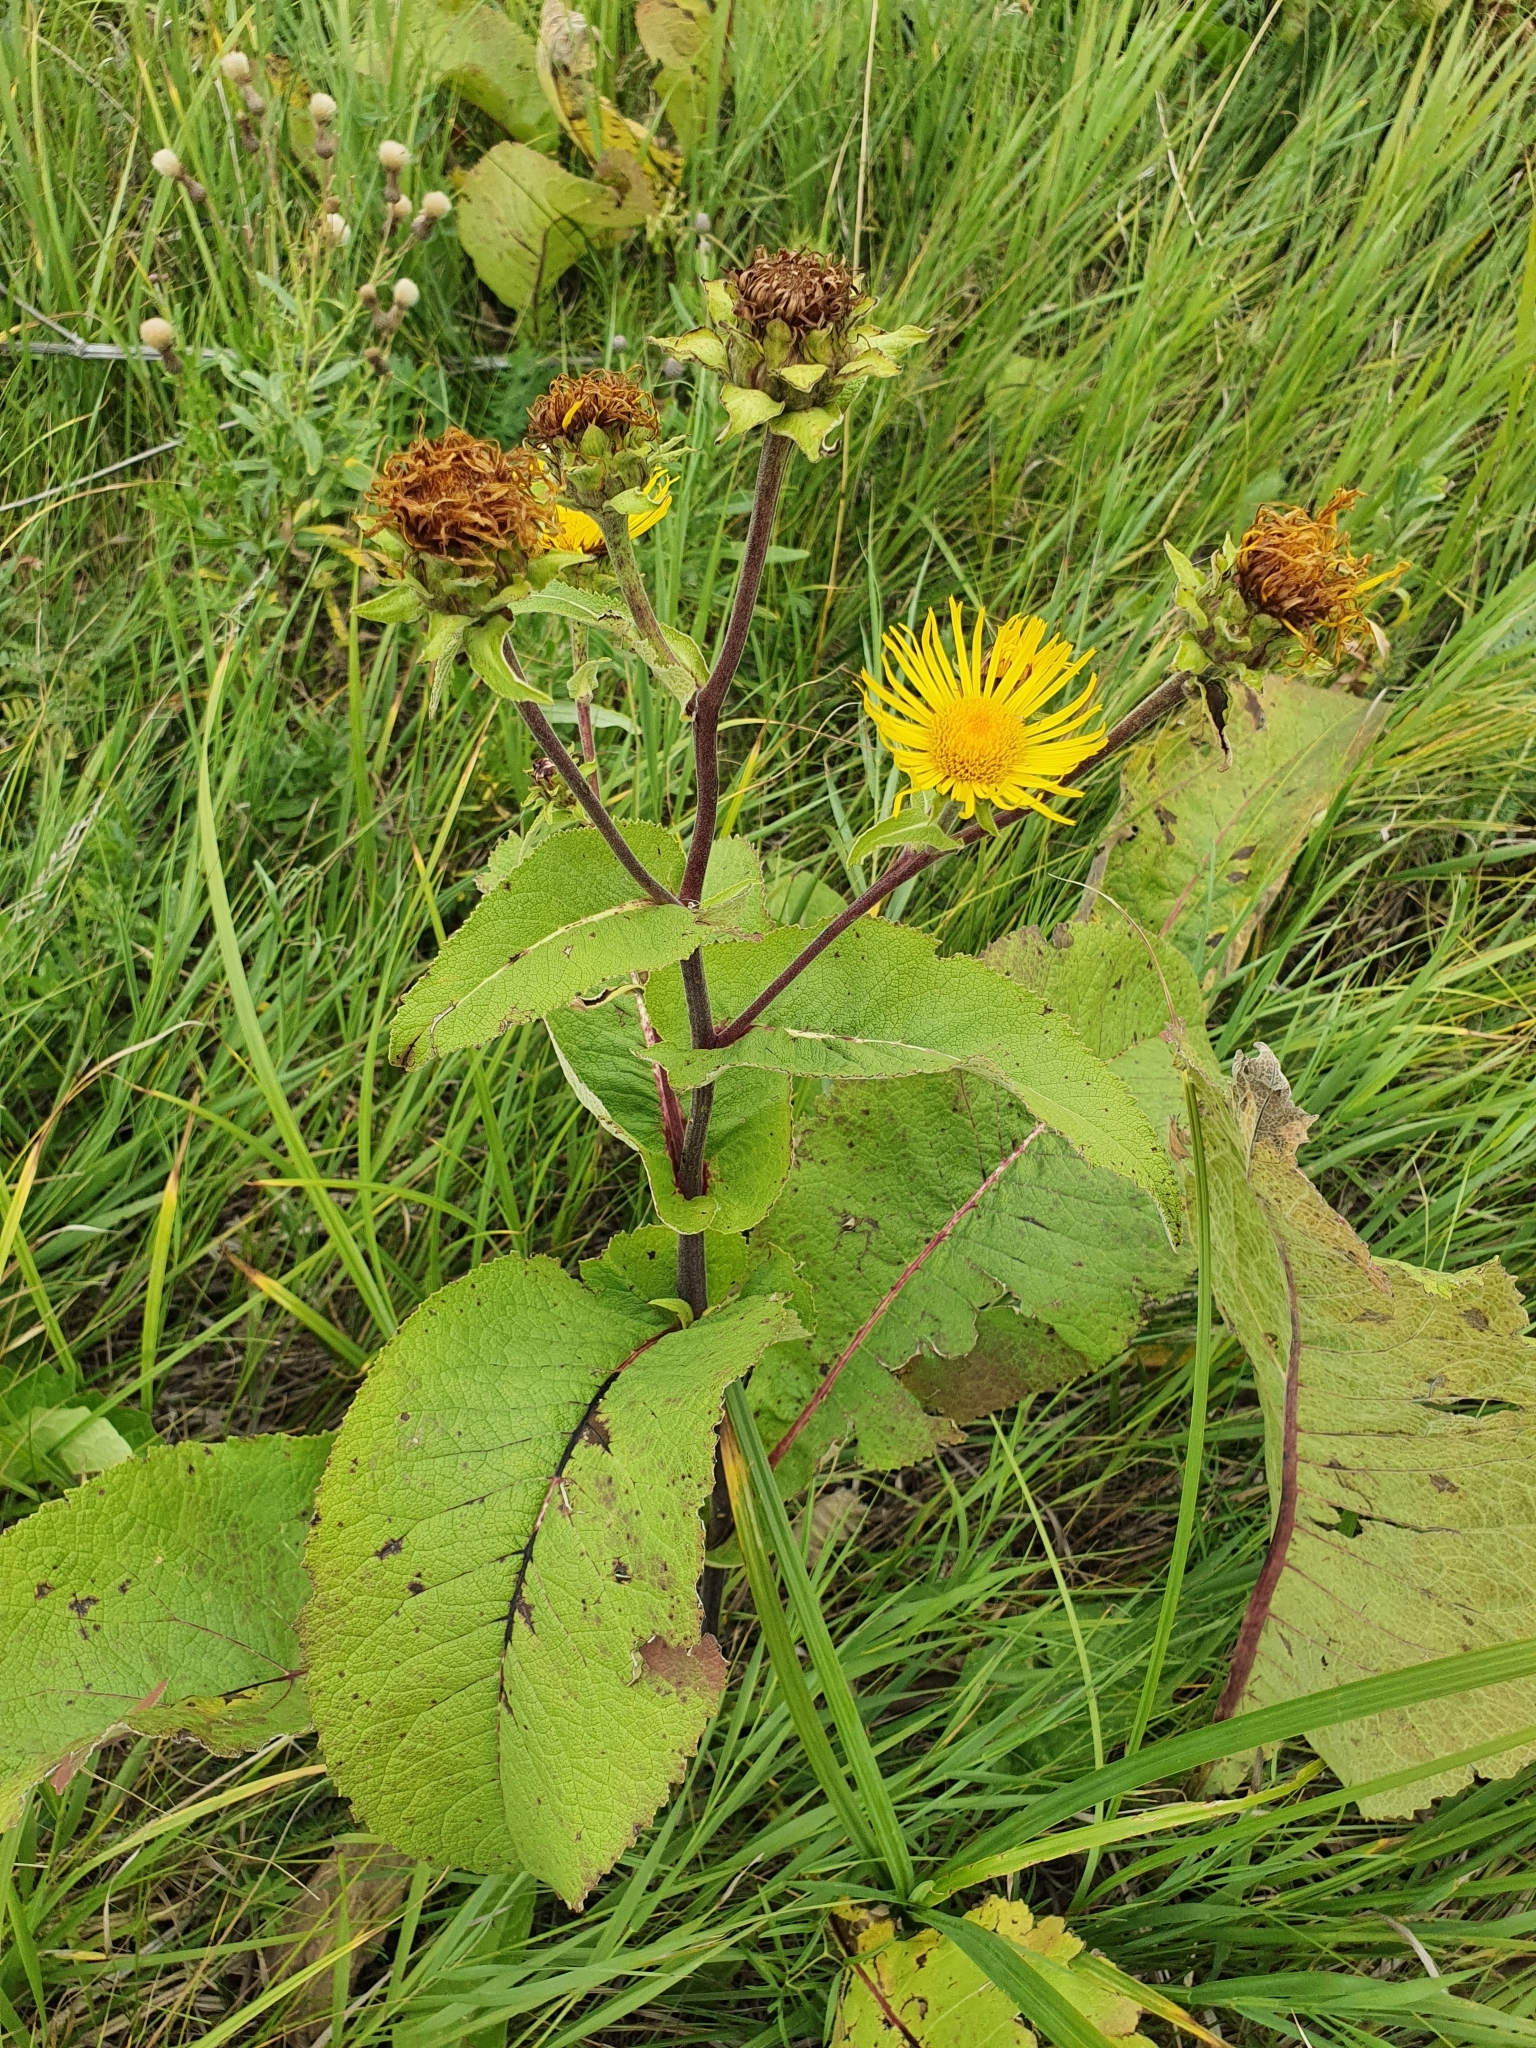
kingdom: Plantae
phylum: Tracheophyta
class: Magnoliopsida
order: Asterales
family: Asteraceae
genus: Inula
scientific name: Inula helenium
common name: Elecampane
